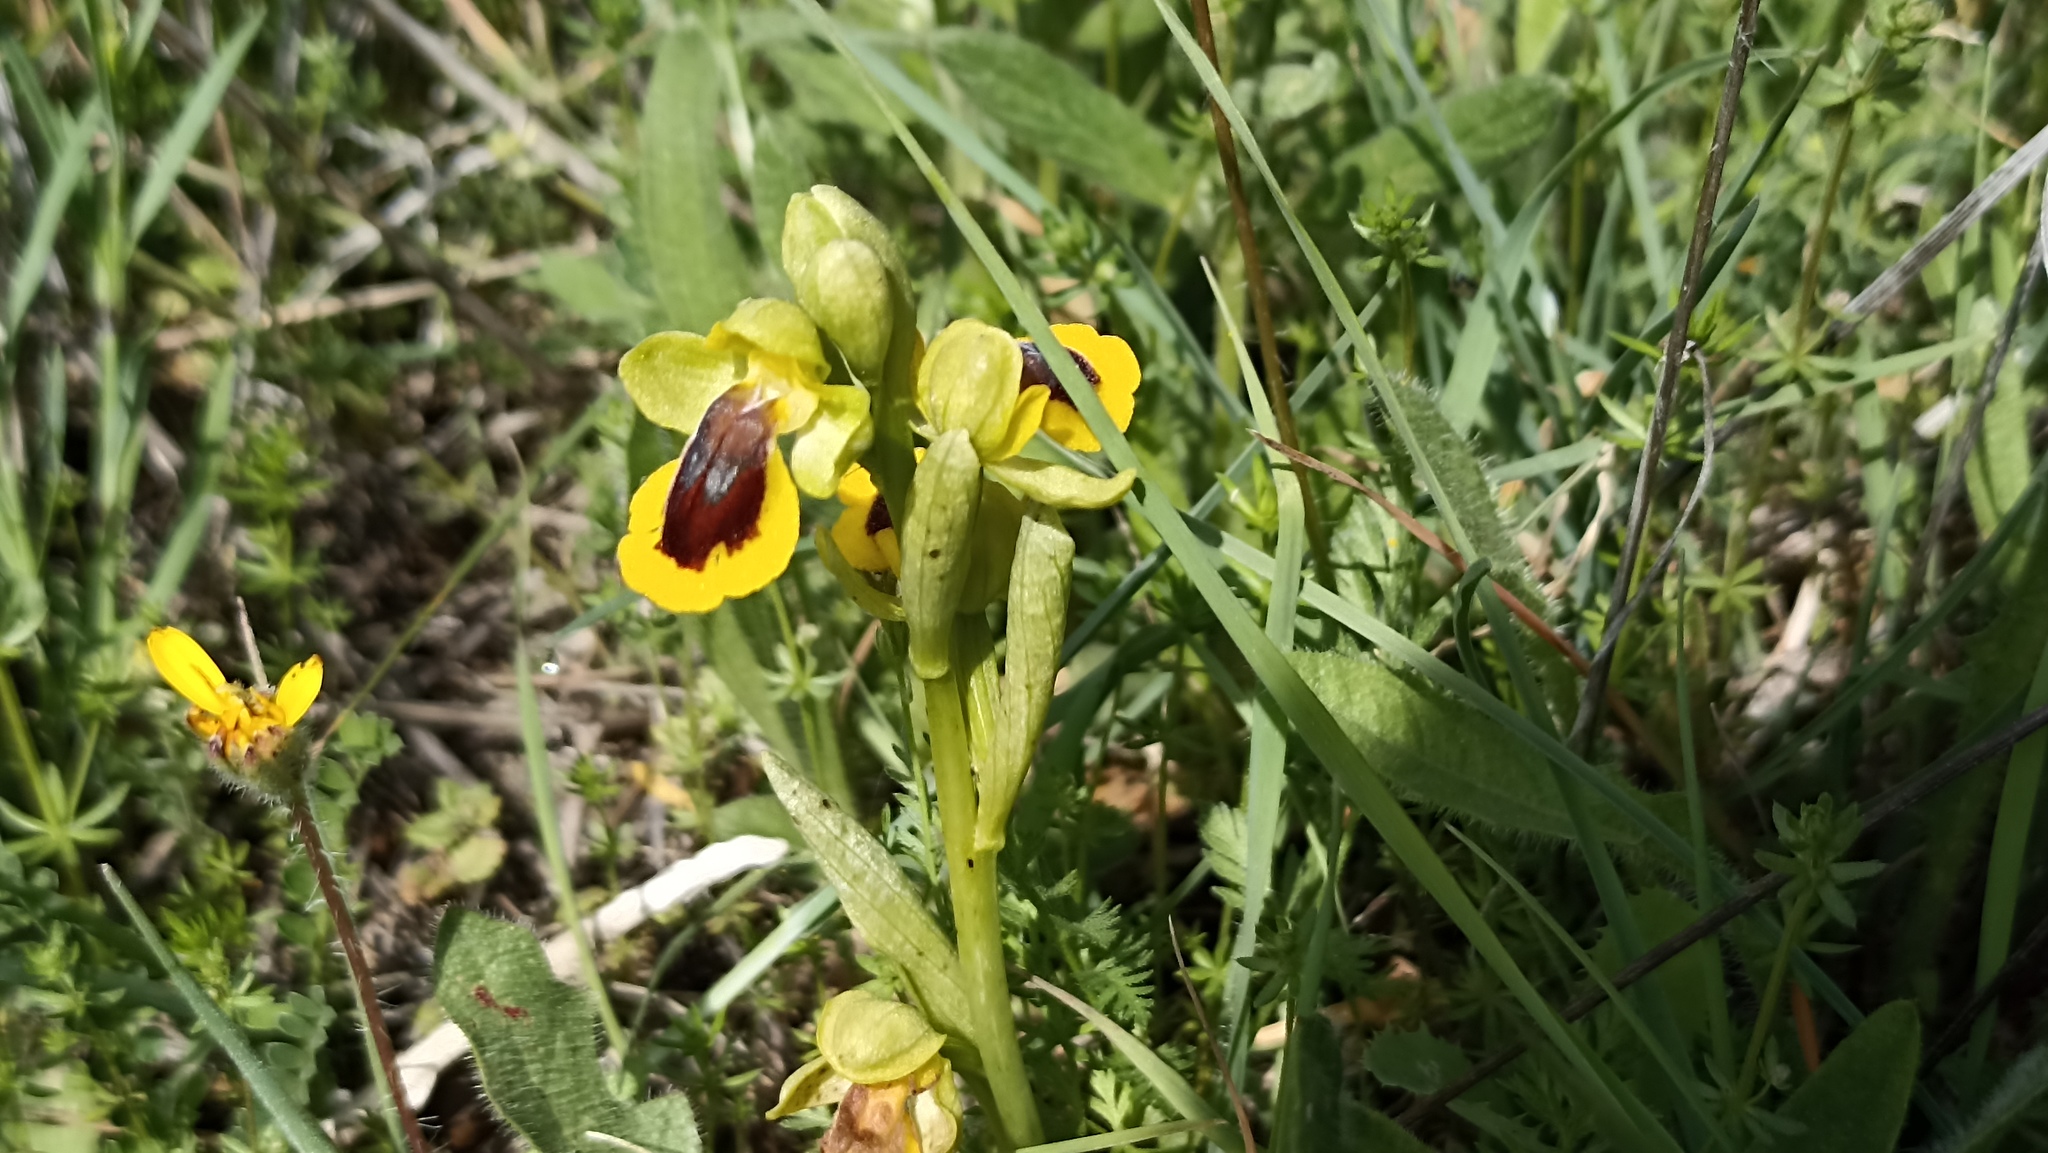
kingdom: Plantae
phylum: Tracheophyta
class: Liliopsida
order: Asparagales
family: Orchidaceae
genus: Ophrys
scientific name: Ophrys lutea
